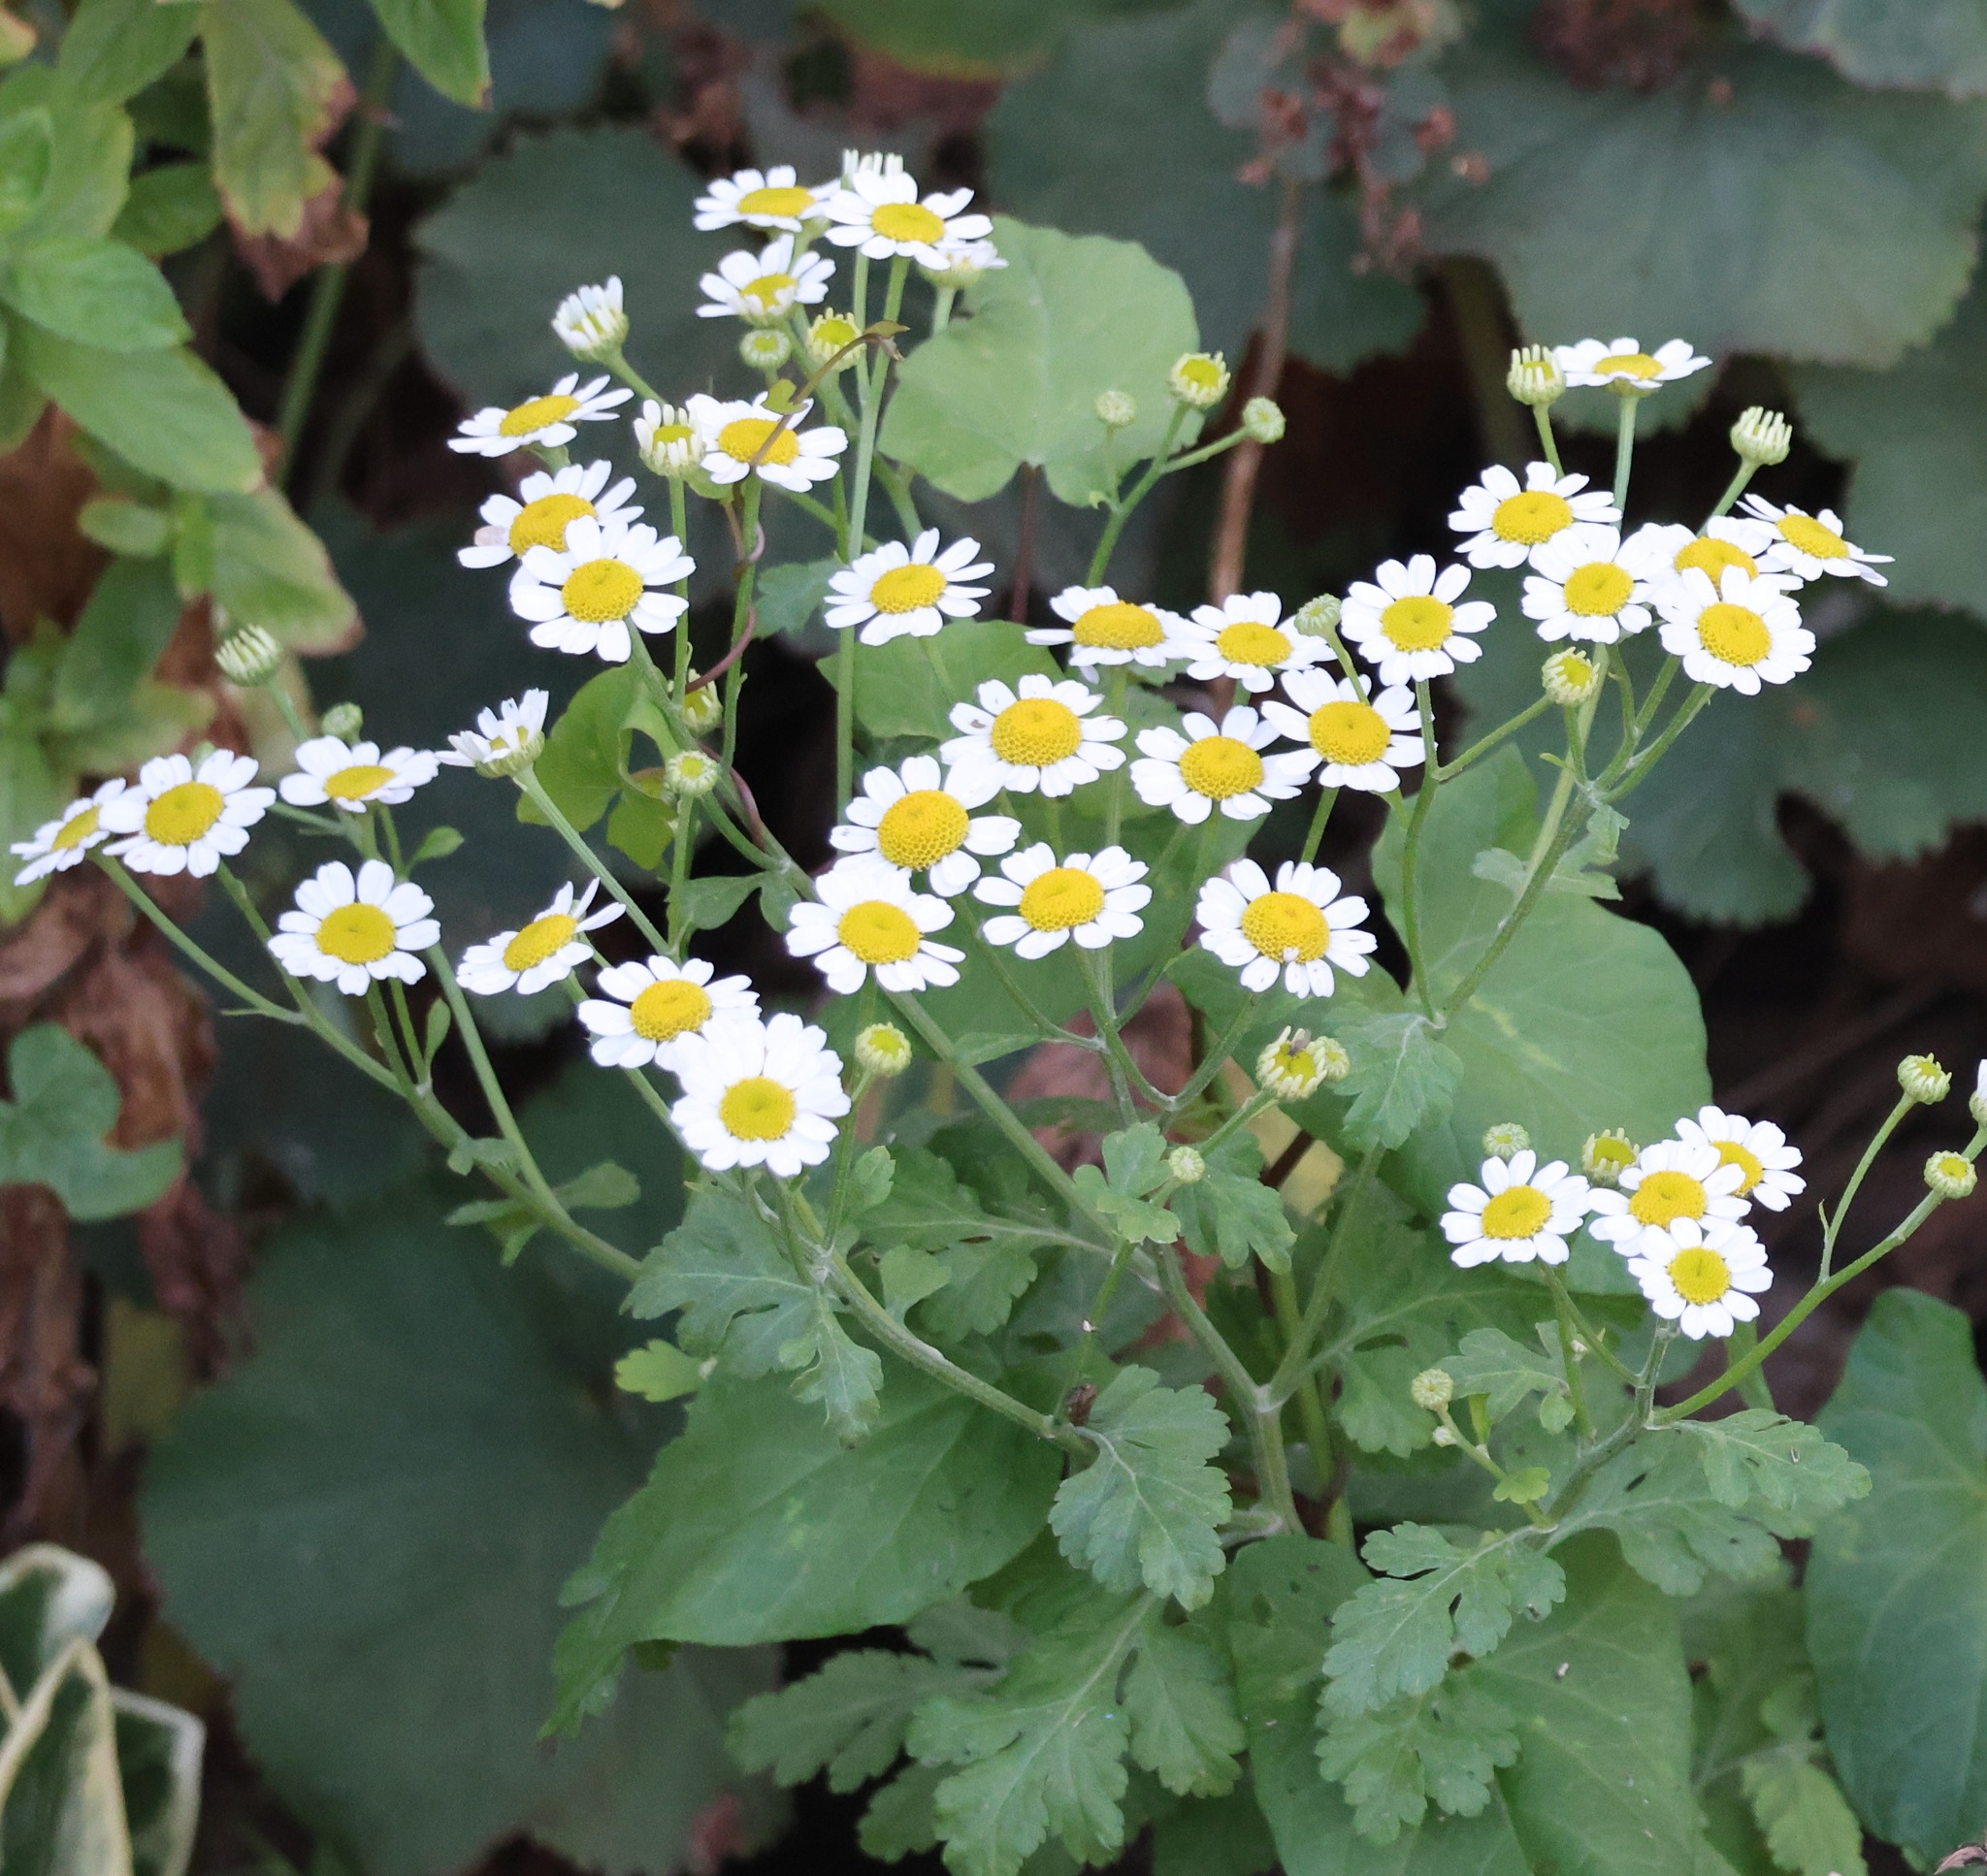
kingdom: Plantae
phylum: Tracheophyta
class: Magnoliopsida
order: Asterales
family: Asteraceae
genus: Tanacetum
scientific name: Tanacetum parthenium
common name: Feverfew
